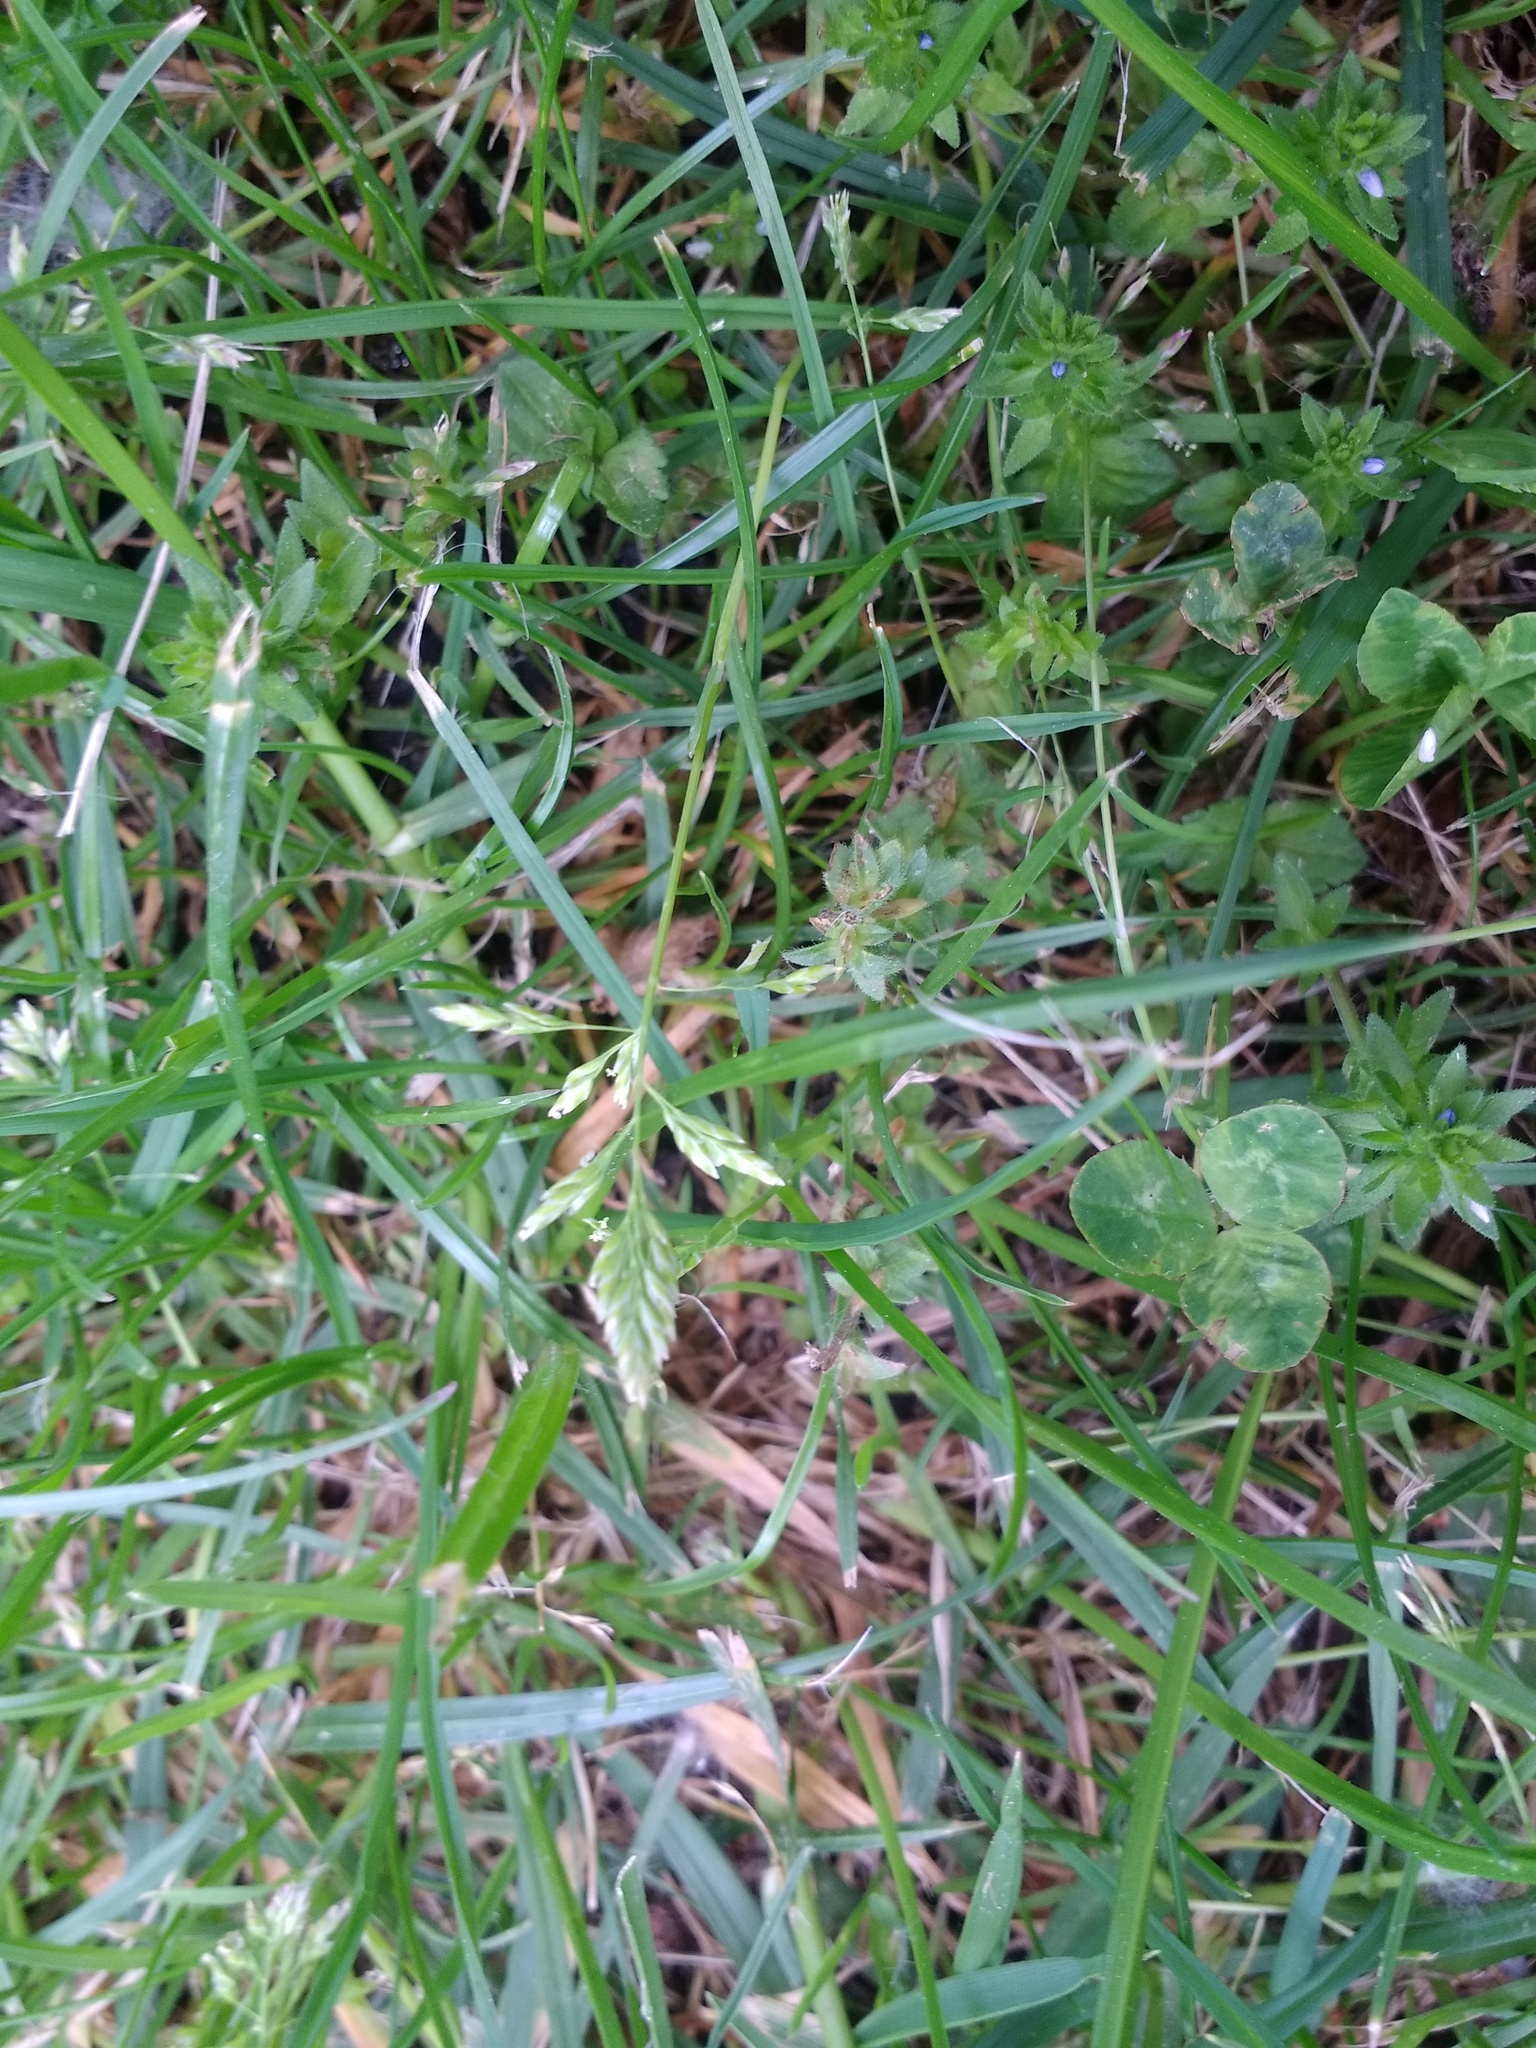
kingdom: Plantae
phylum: Tracheophyta
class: Liliopsida
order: Poales
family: Poaceae
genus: Poa
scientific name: Poa annua
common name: Annual bluegrass
